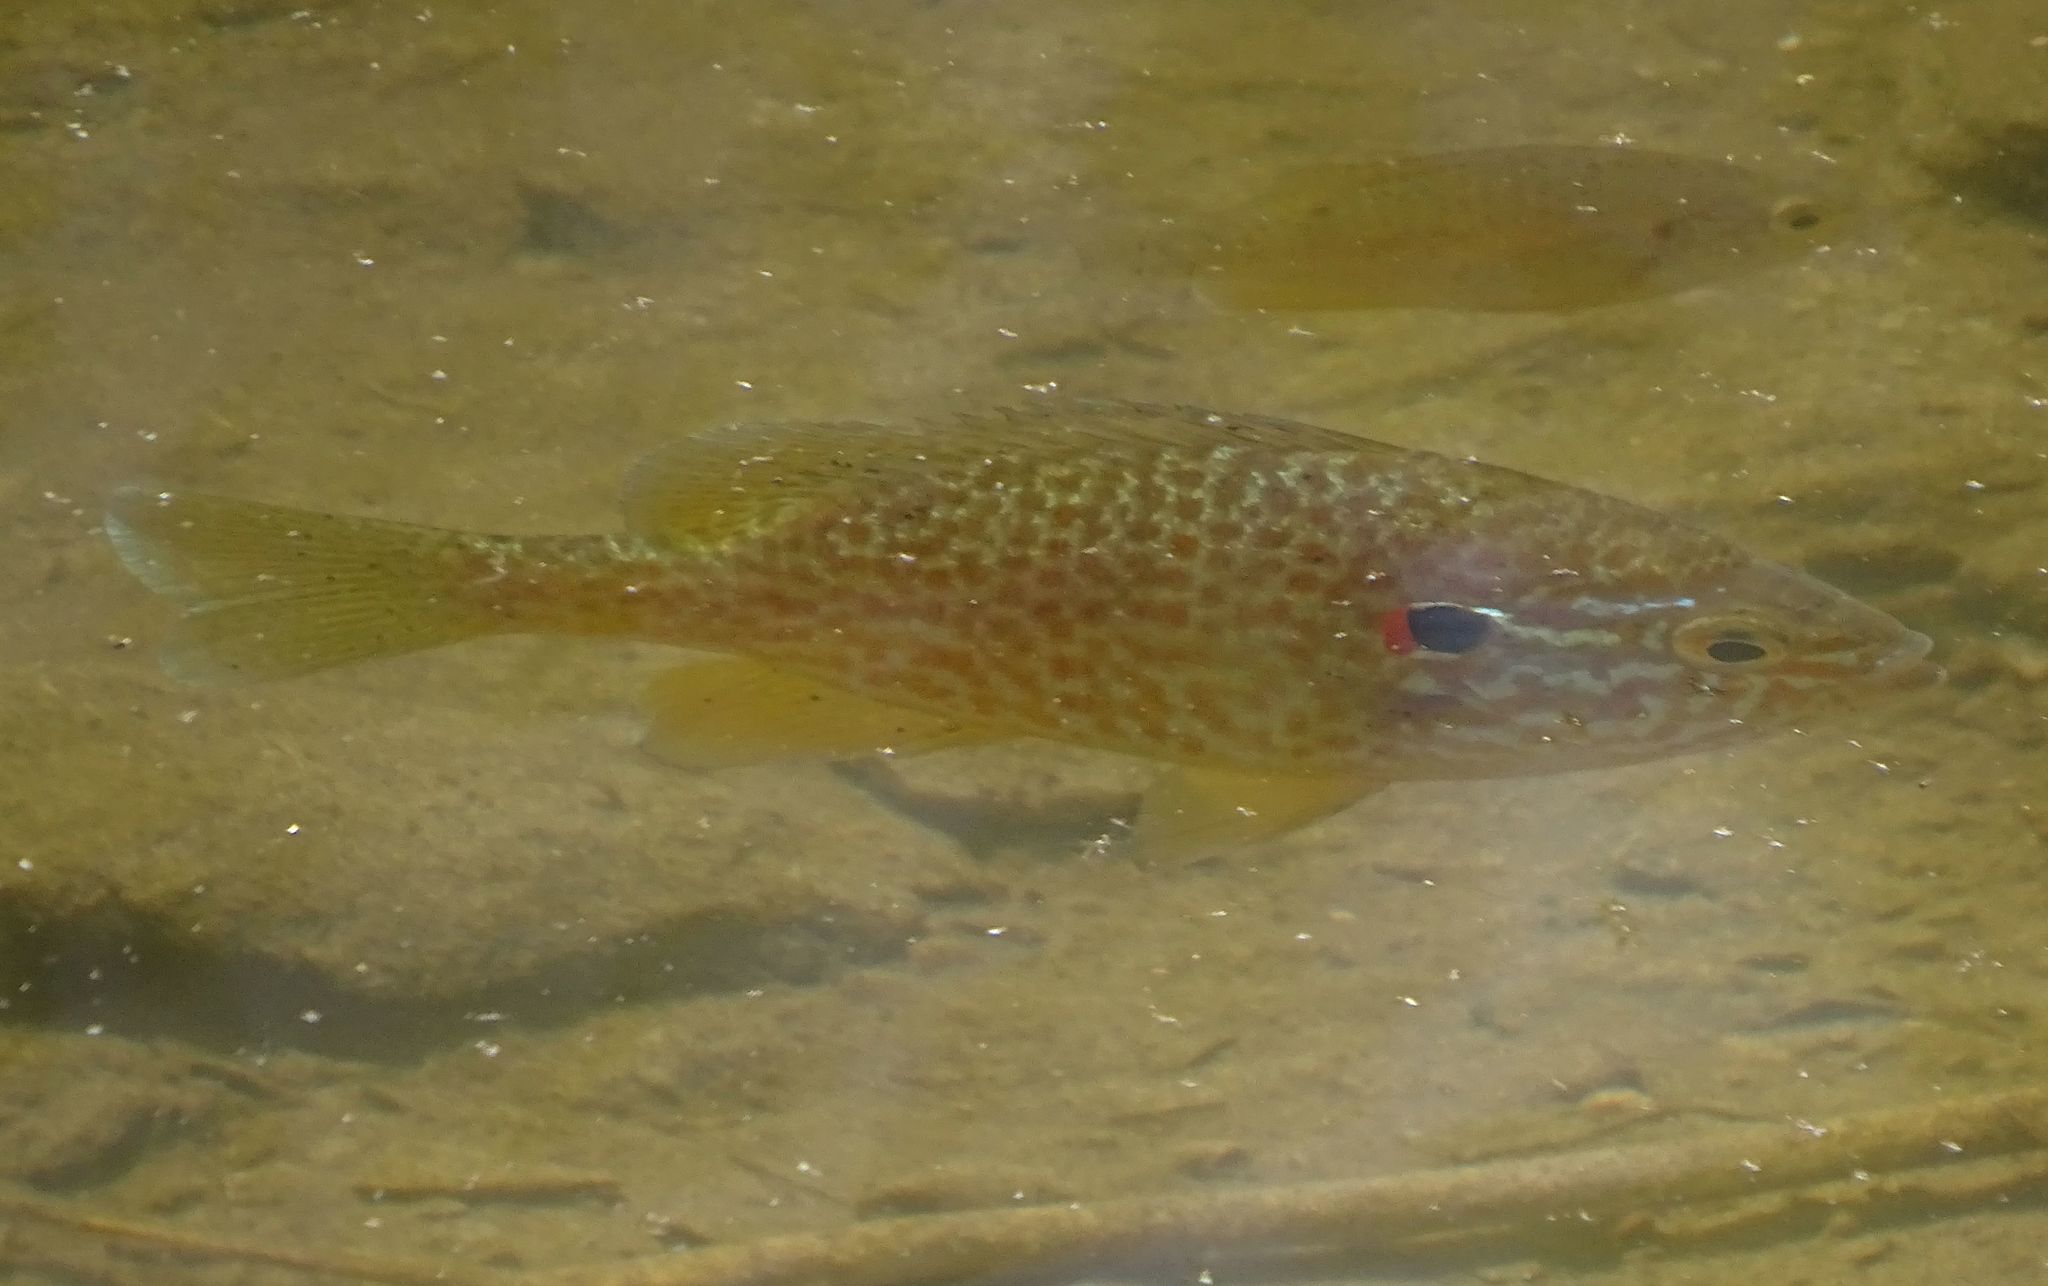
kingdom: Animalia
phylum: Chordata
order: Perciformes
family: Centrarchidae
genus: Lepomis
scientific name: Lepomis gibbosus
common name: Pumpkinseed
